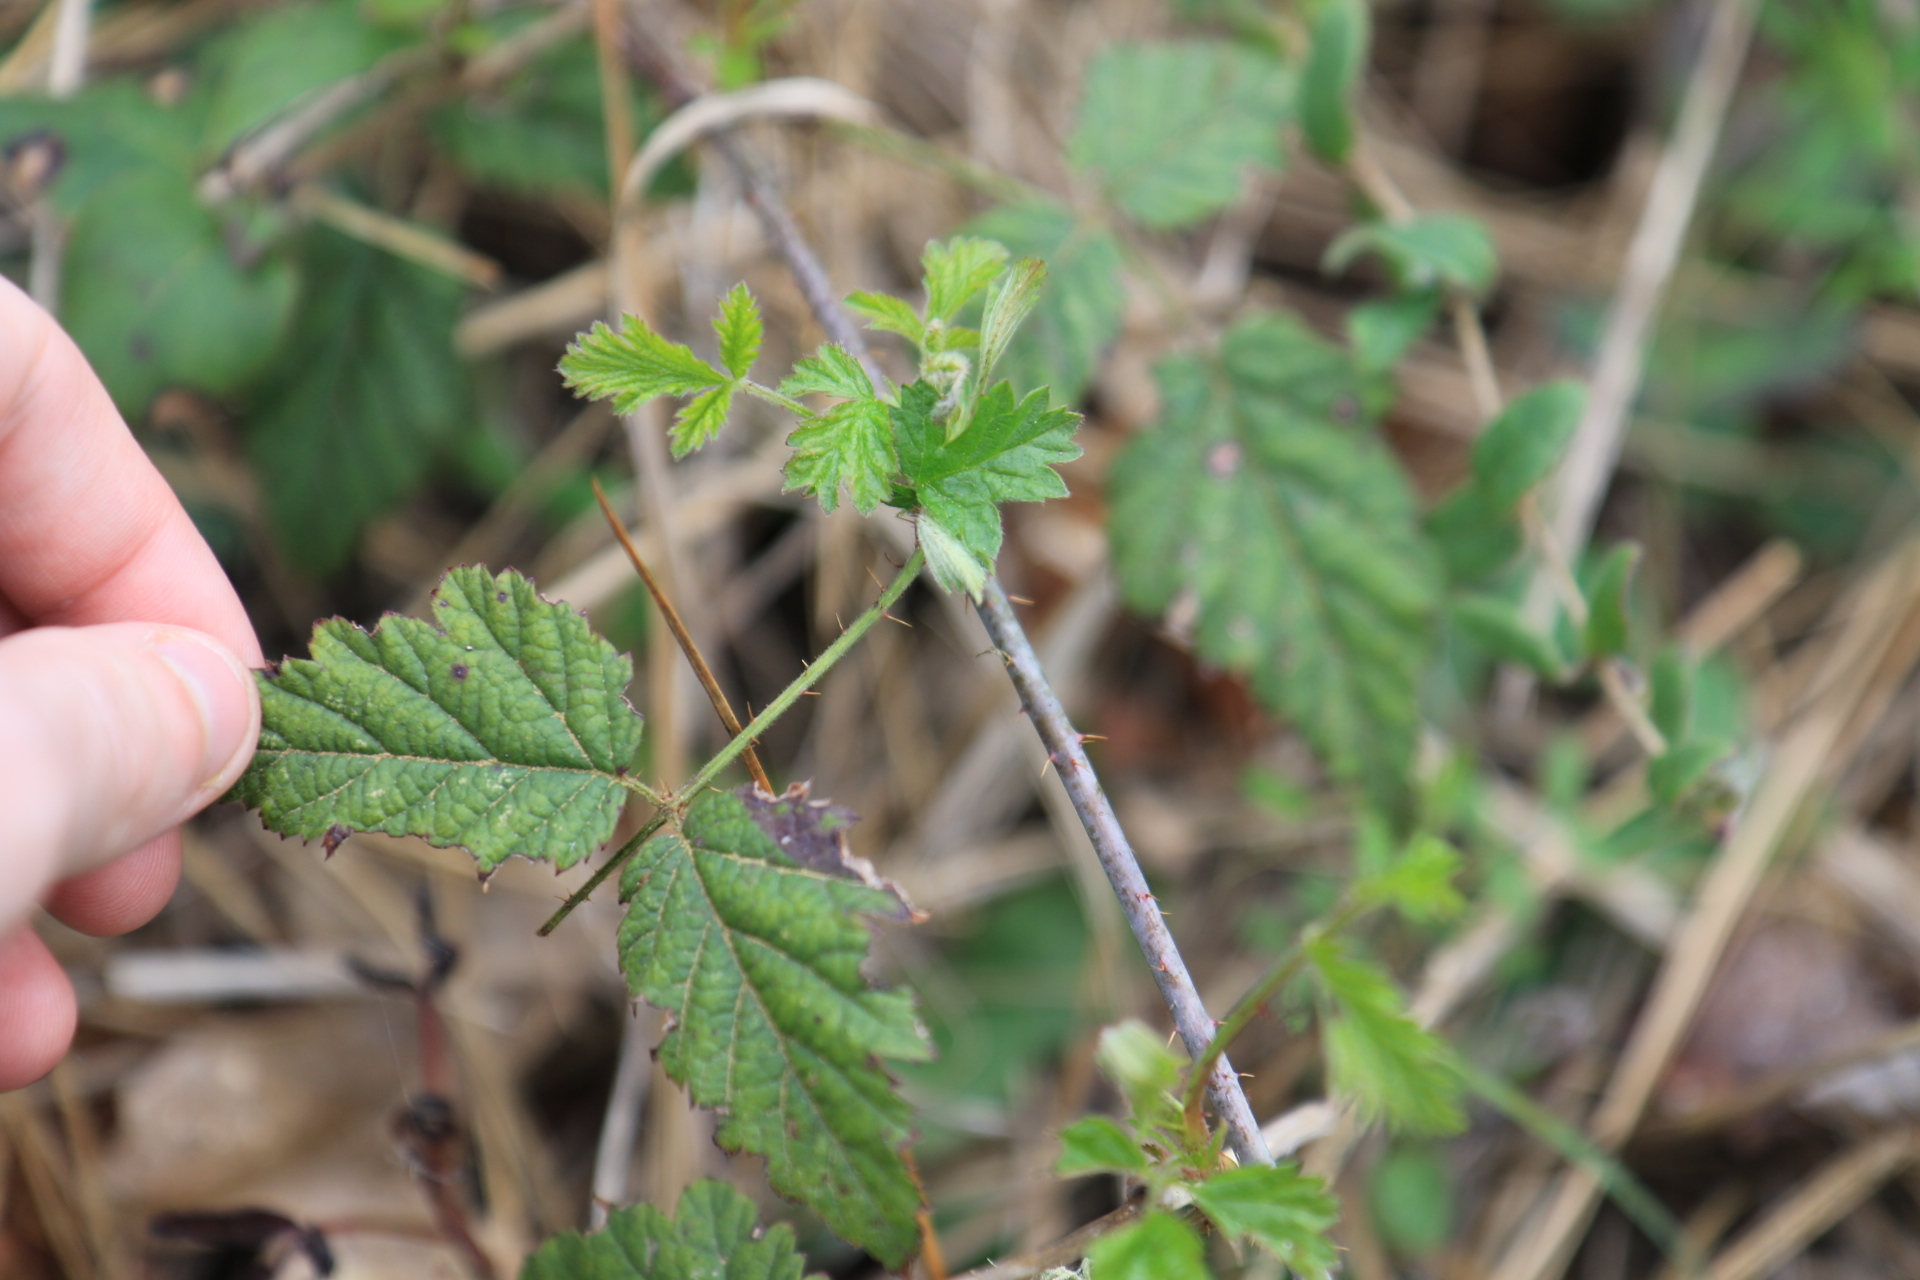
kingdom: Plantae
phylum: Tracheophyta
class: Magnoliopsida
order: Rosales
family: Rosaceae
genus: Rubus
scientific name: Rubus ursinus
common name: Pacific blackberry
